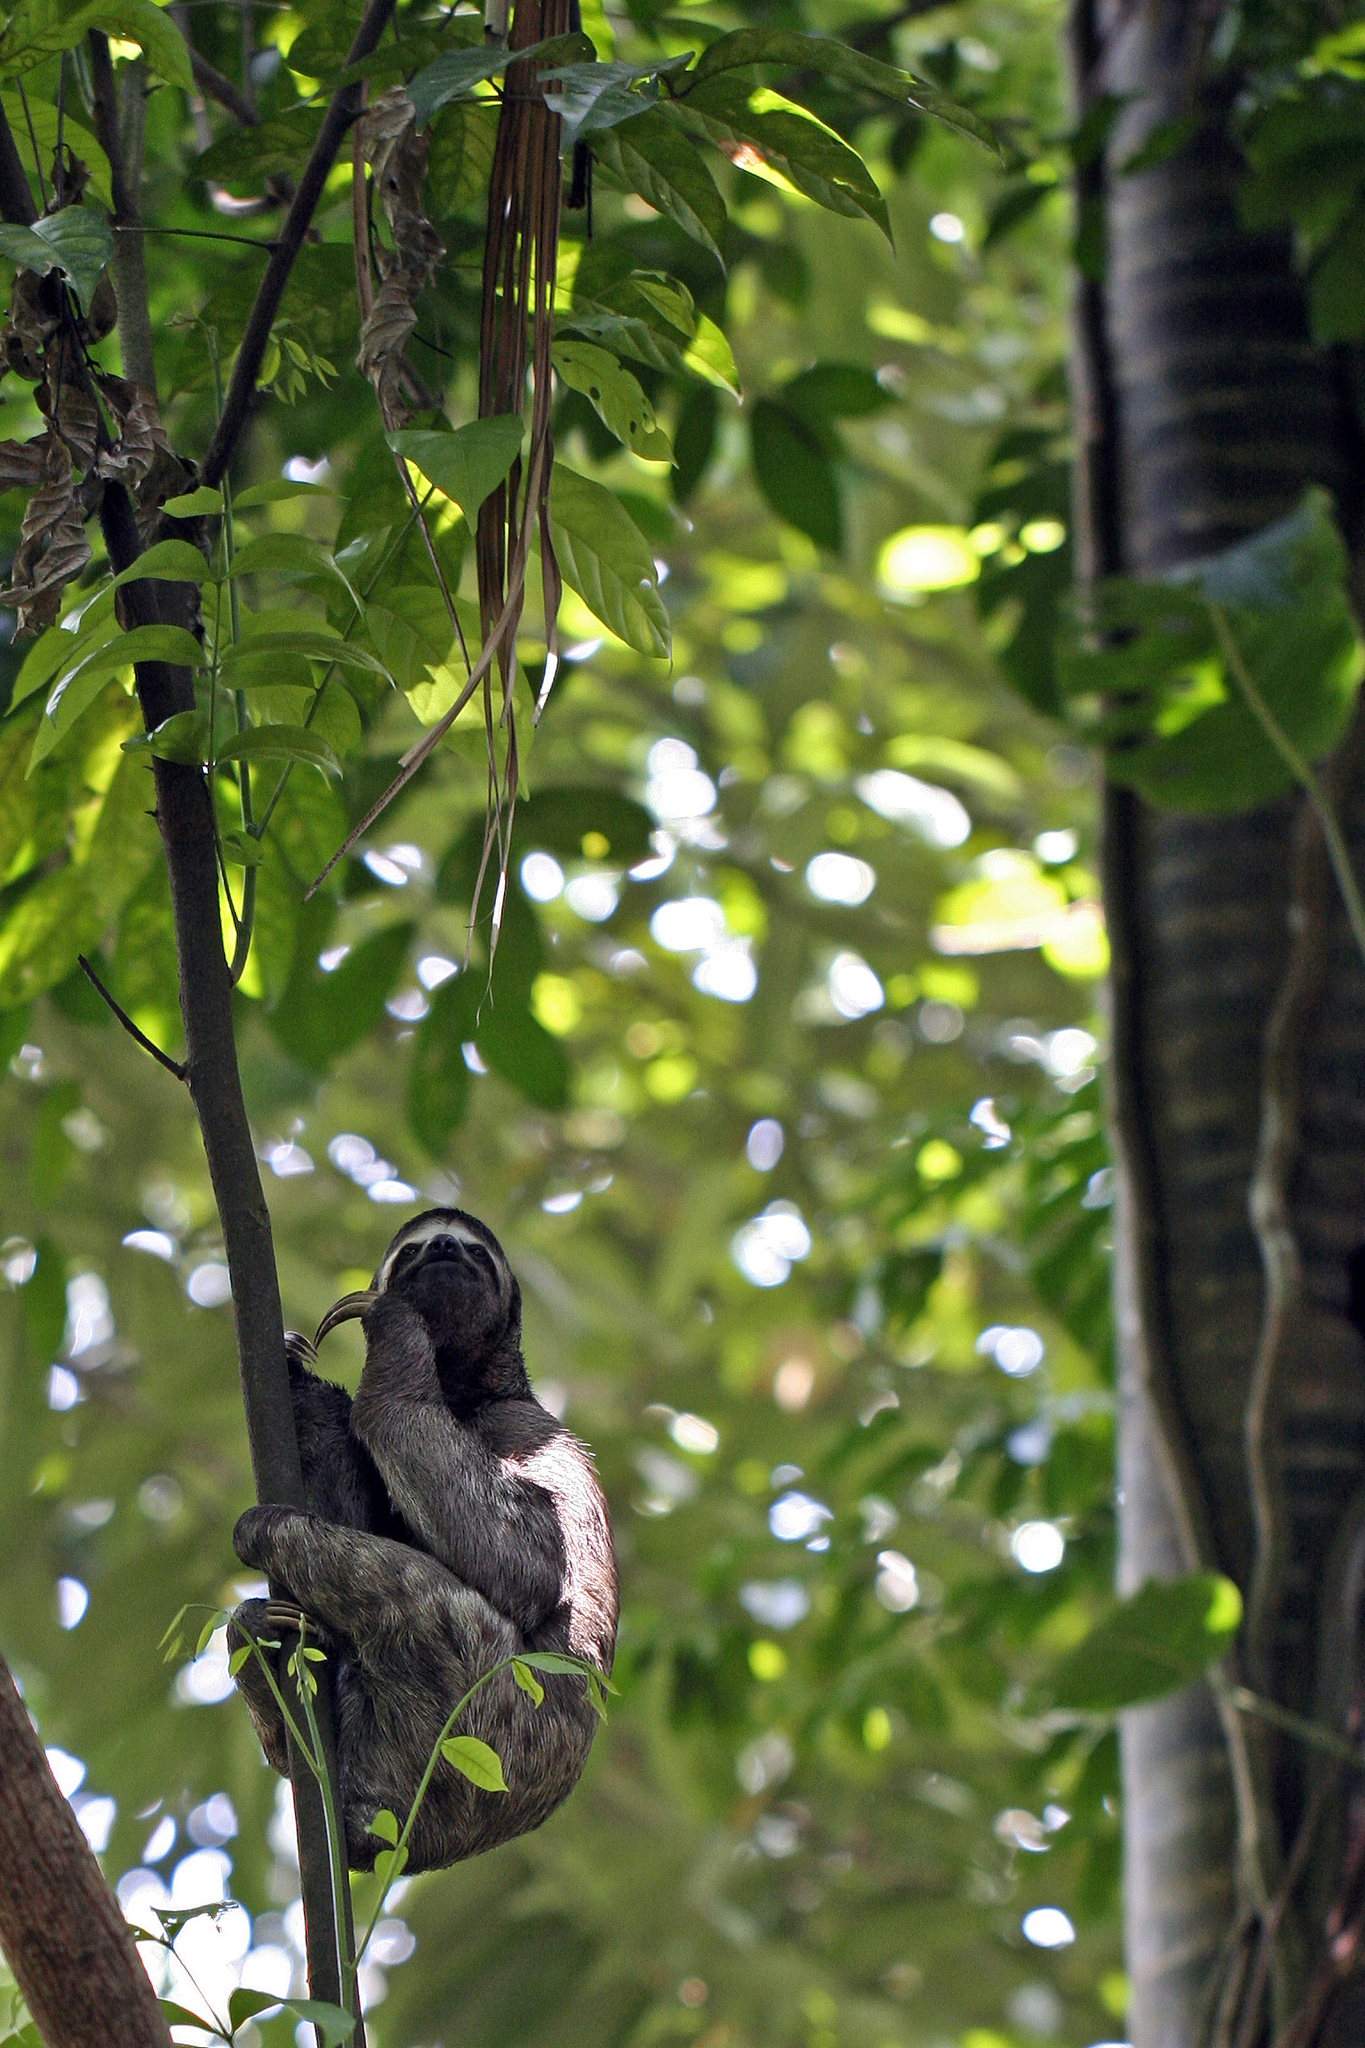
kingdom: Animalia
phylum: Chordata
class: Mammalia
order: Pilosa
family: Bradypodidae
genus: Bradypus
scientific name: Bradypus variegatus
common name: Brown-throated three-toed sloth
